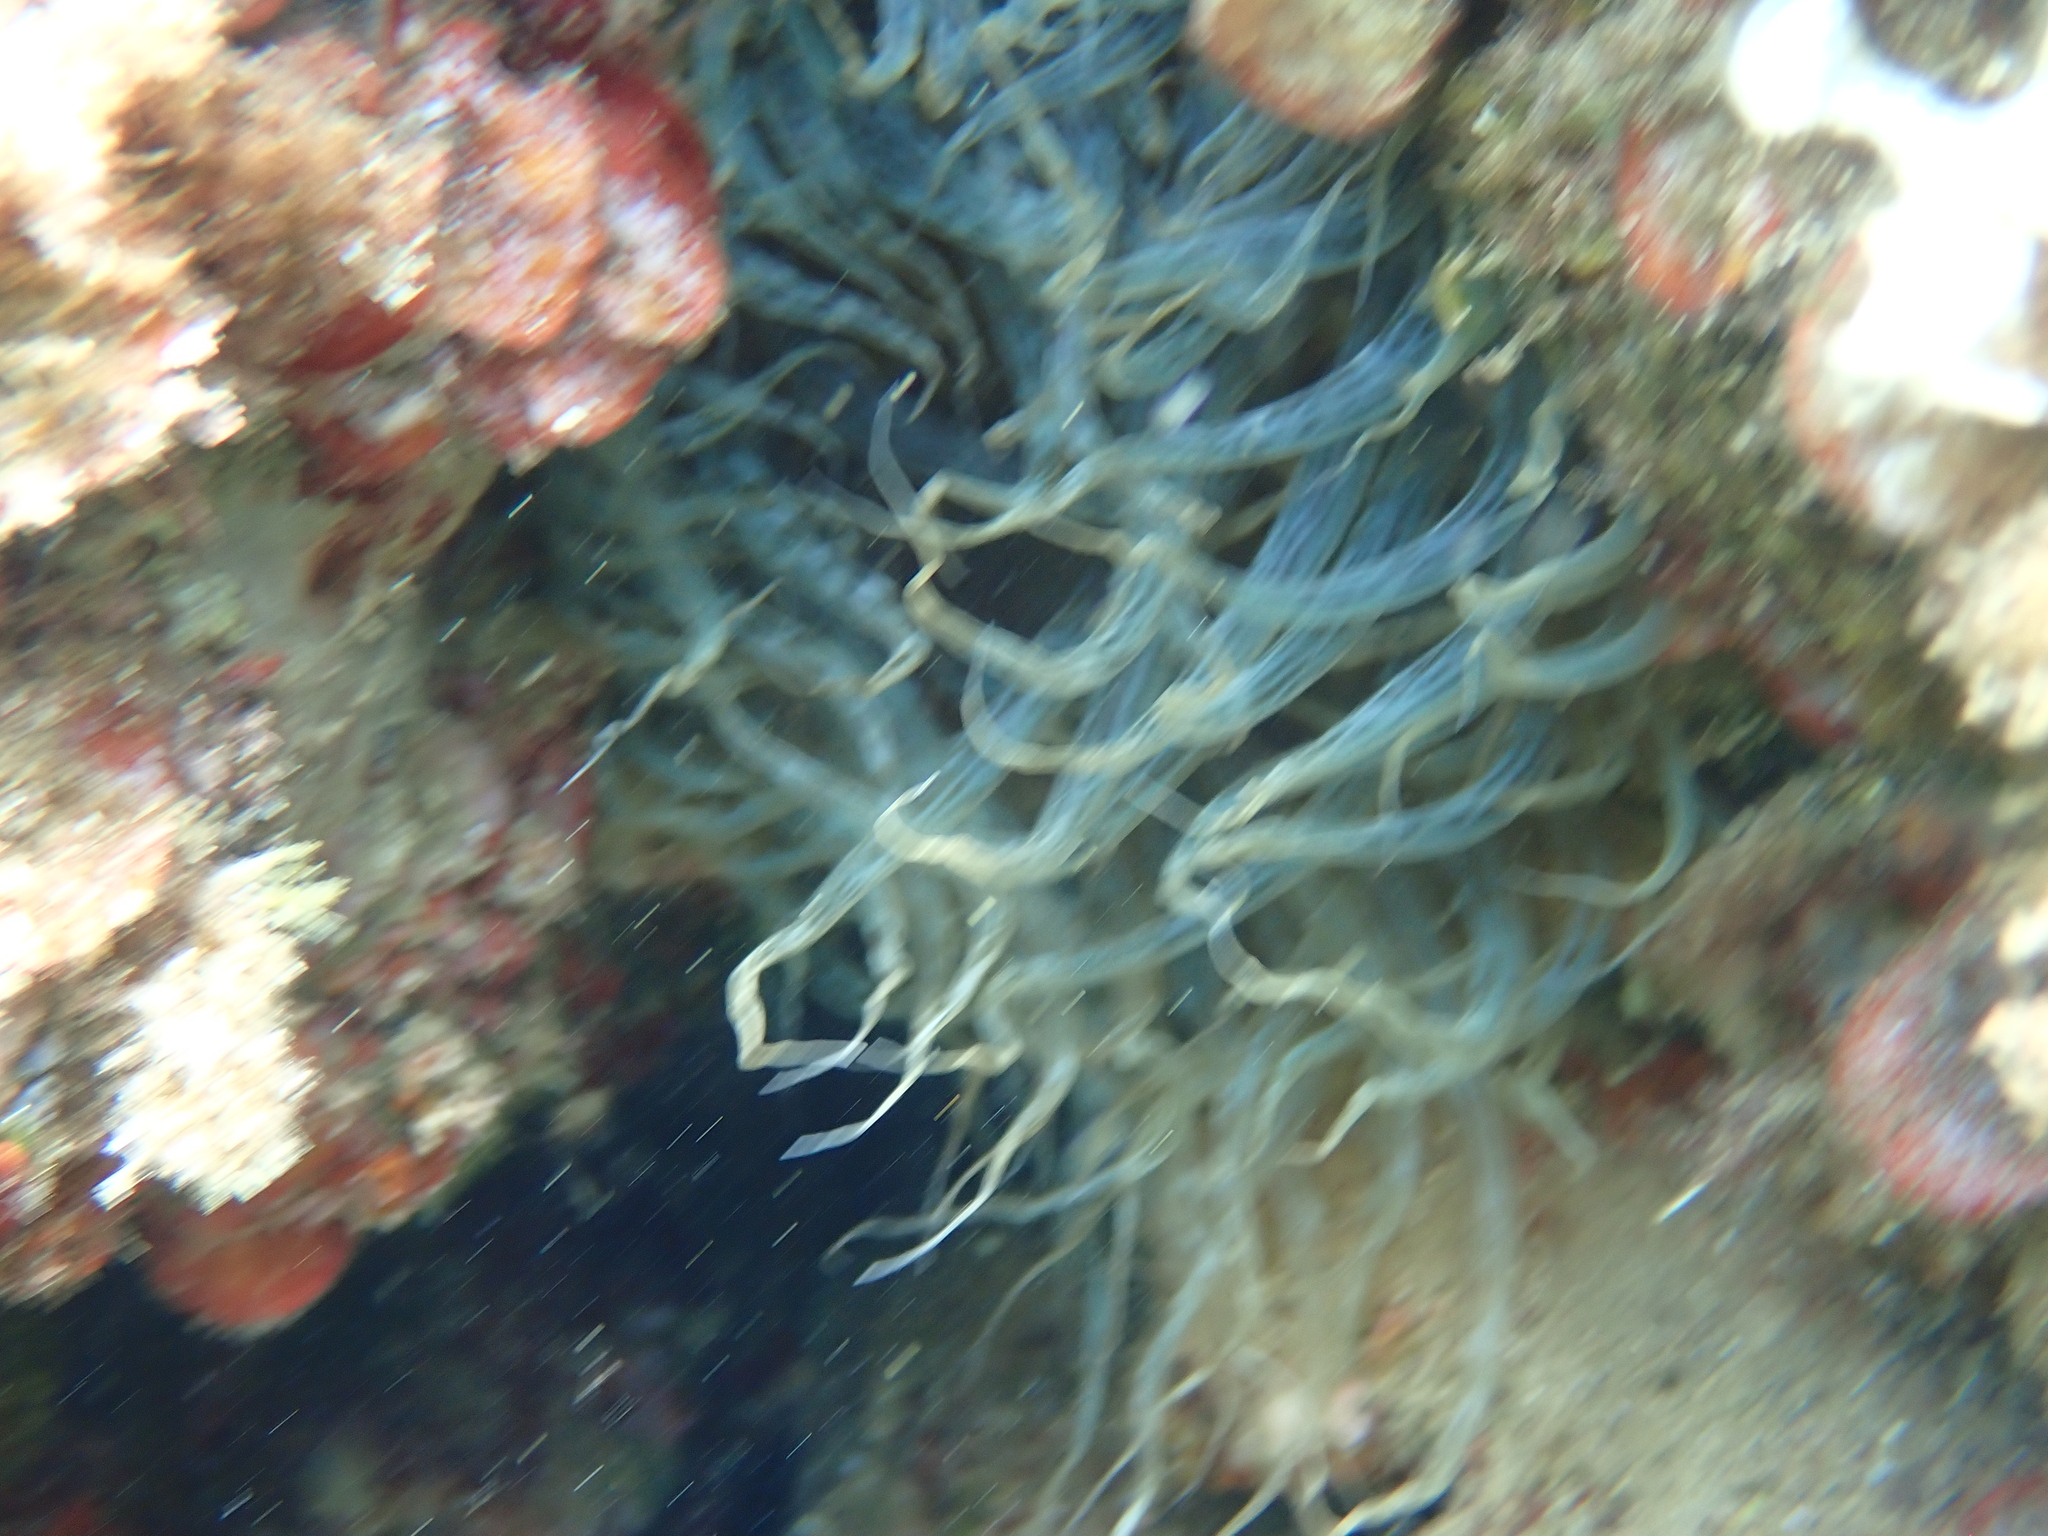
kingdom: Animalia
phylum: Cnidaria
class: Anthozoa
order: Actiniaria
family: Aiptasiidae
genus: Aiptasia
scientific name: Aiptasia mutabilis
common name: Trumpet anemone
